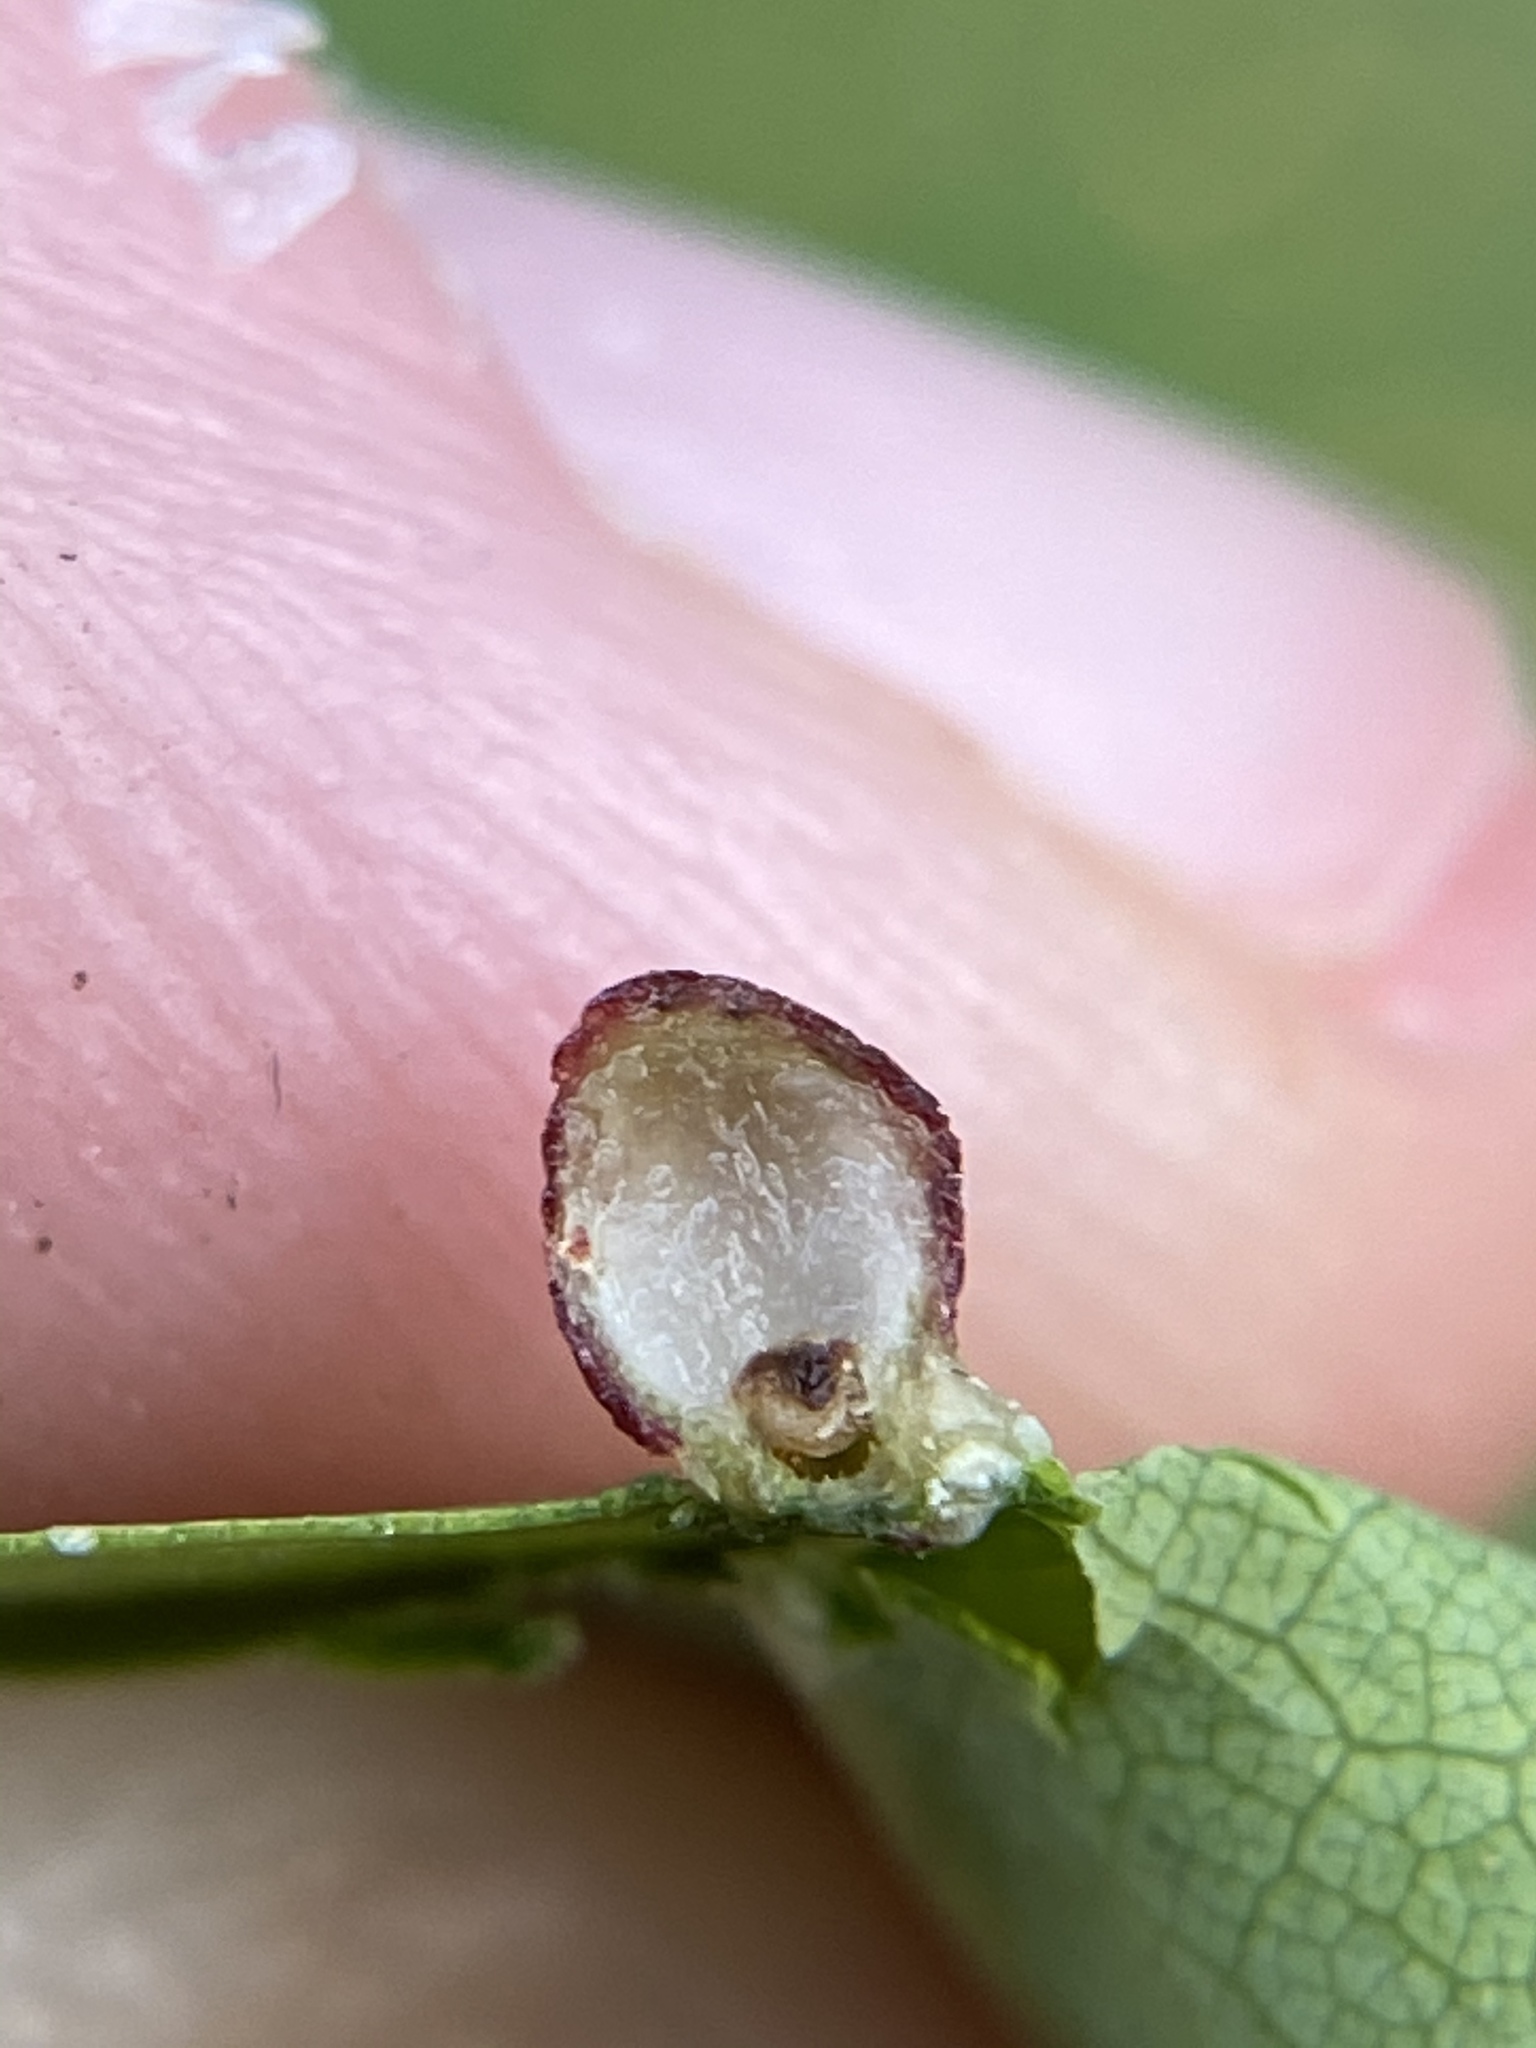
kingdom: Animalia
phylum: Arthropoda
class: Insecta
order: Diptera
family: Cecidomyiidae
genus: Polystepha
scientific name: Polystepha globosa
